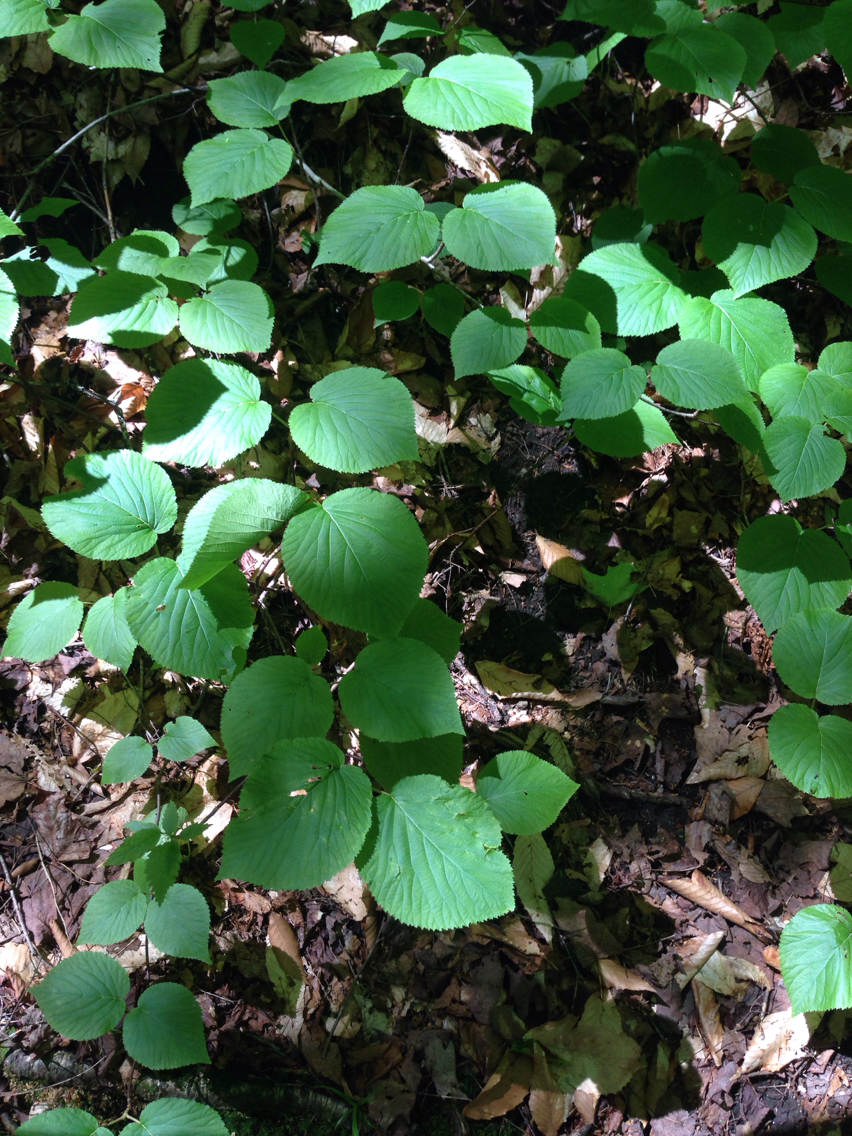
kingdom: Plantae
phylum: Tracheophyta
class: Magnoliopsida
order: Dipsacales
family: Viburnaceae
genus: Viburnum
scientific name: Viburnum lantanoides
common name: Hobblebush
